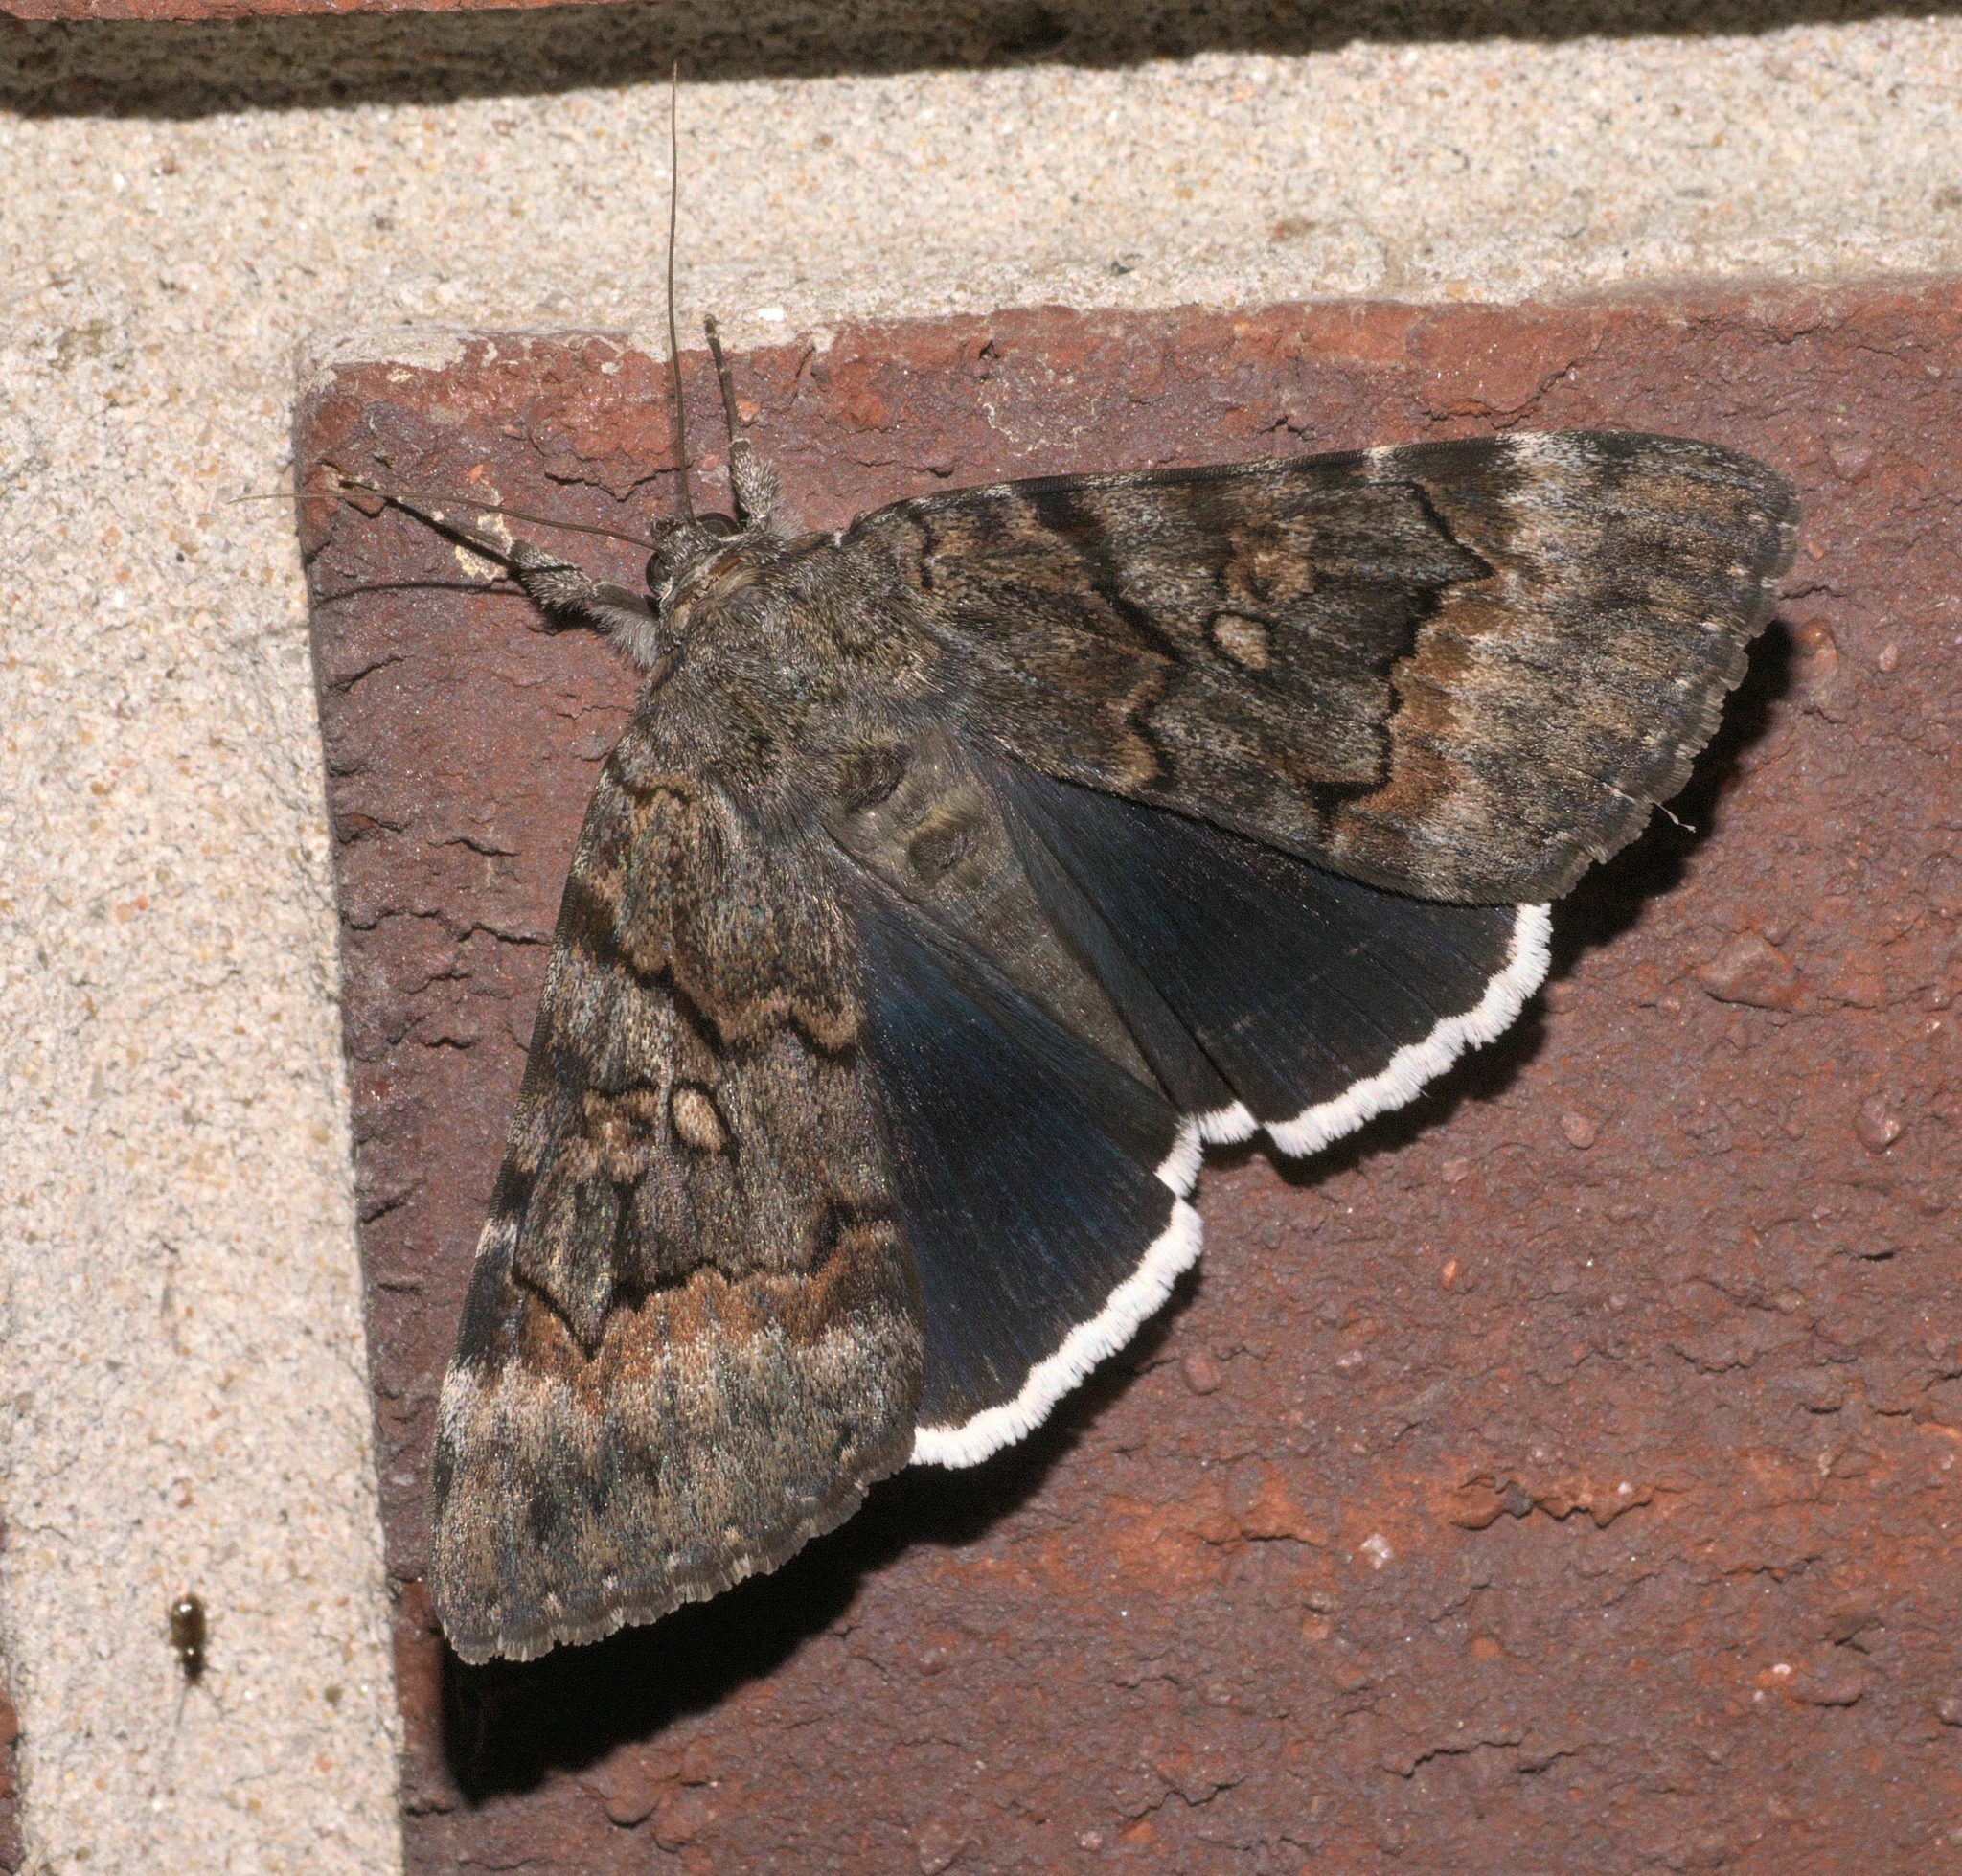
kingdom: Animalia
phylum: Arthropoda
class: Insecta
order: Lepidoptera
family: Erebidae
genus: Catocala
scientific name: Catocala epione
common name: Epione underwing
